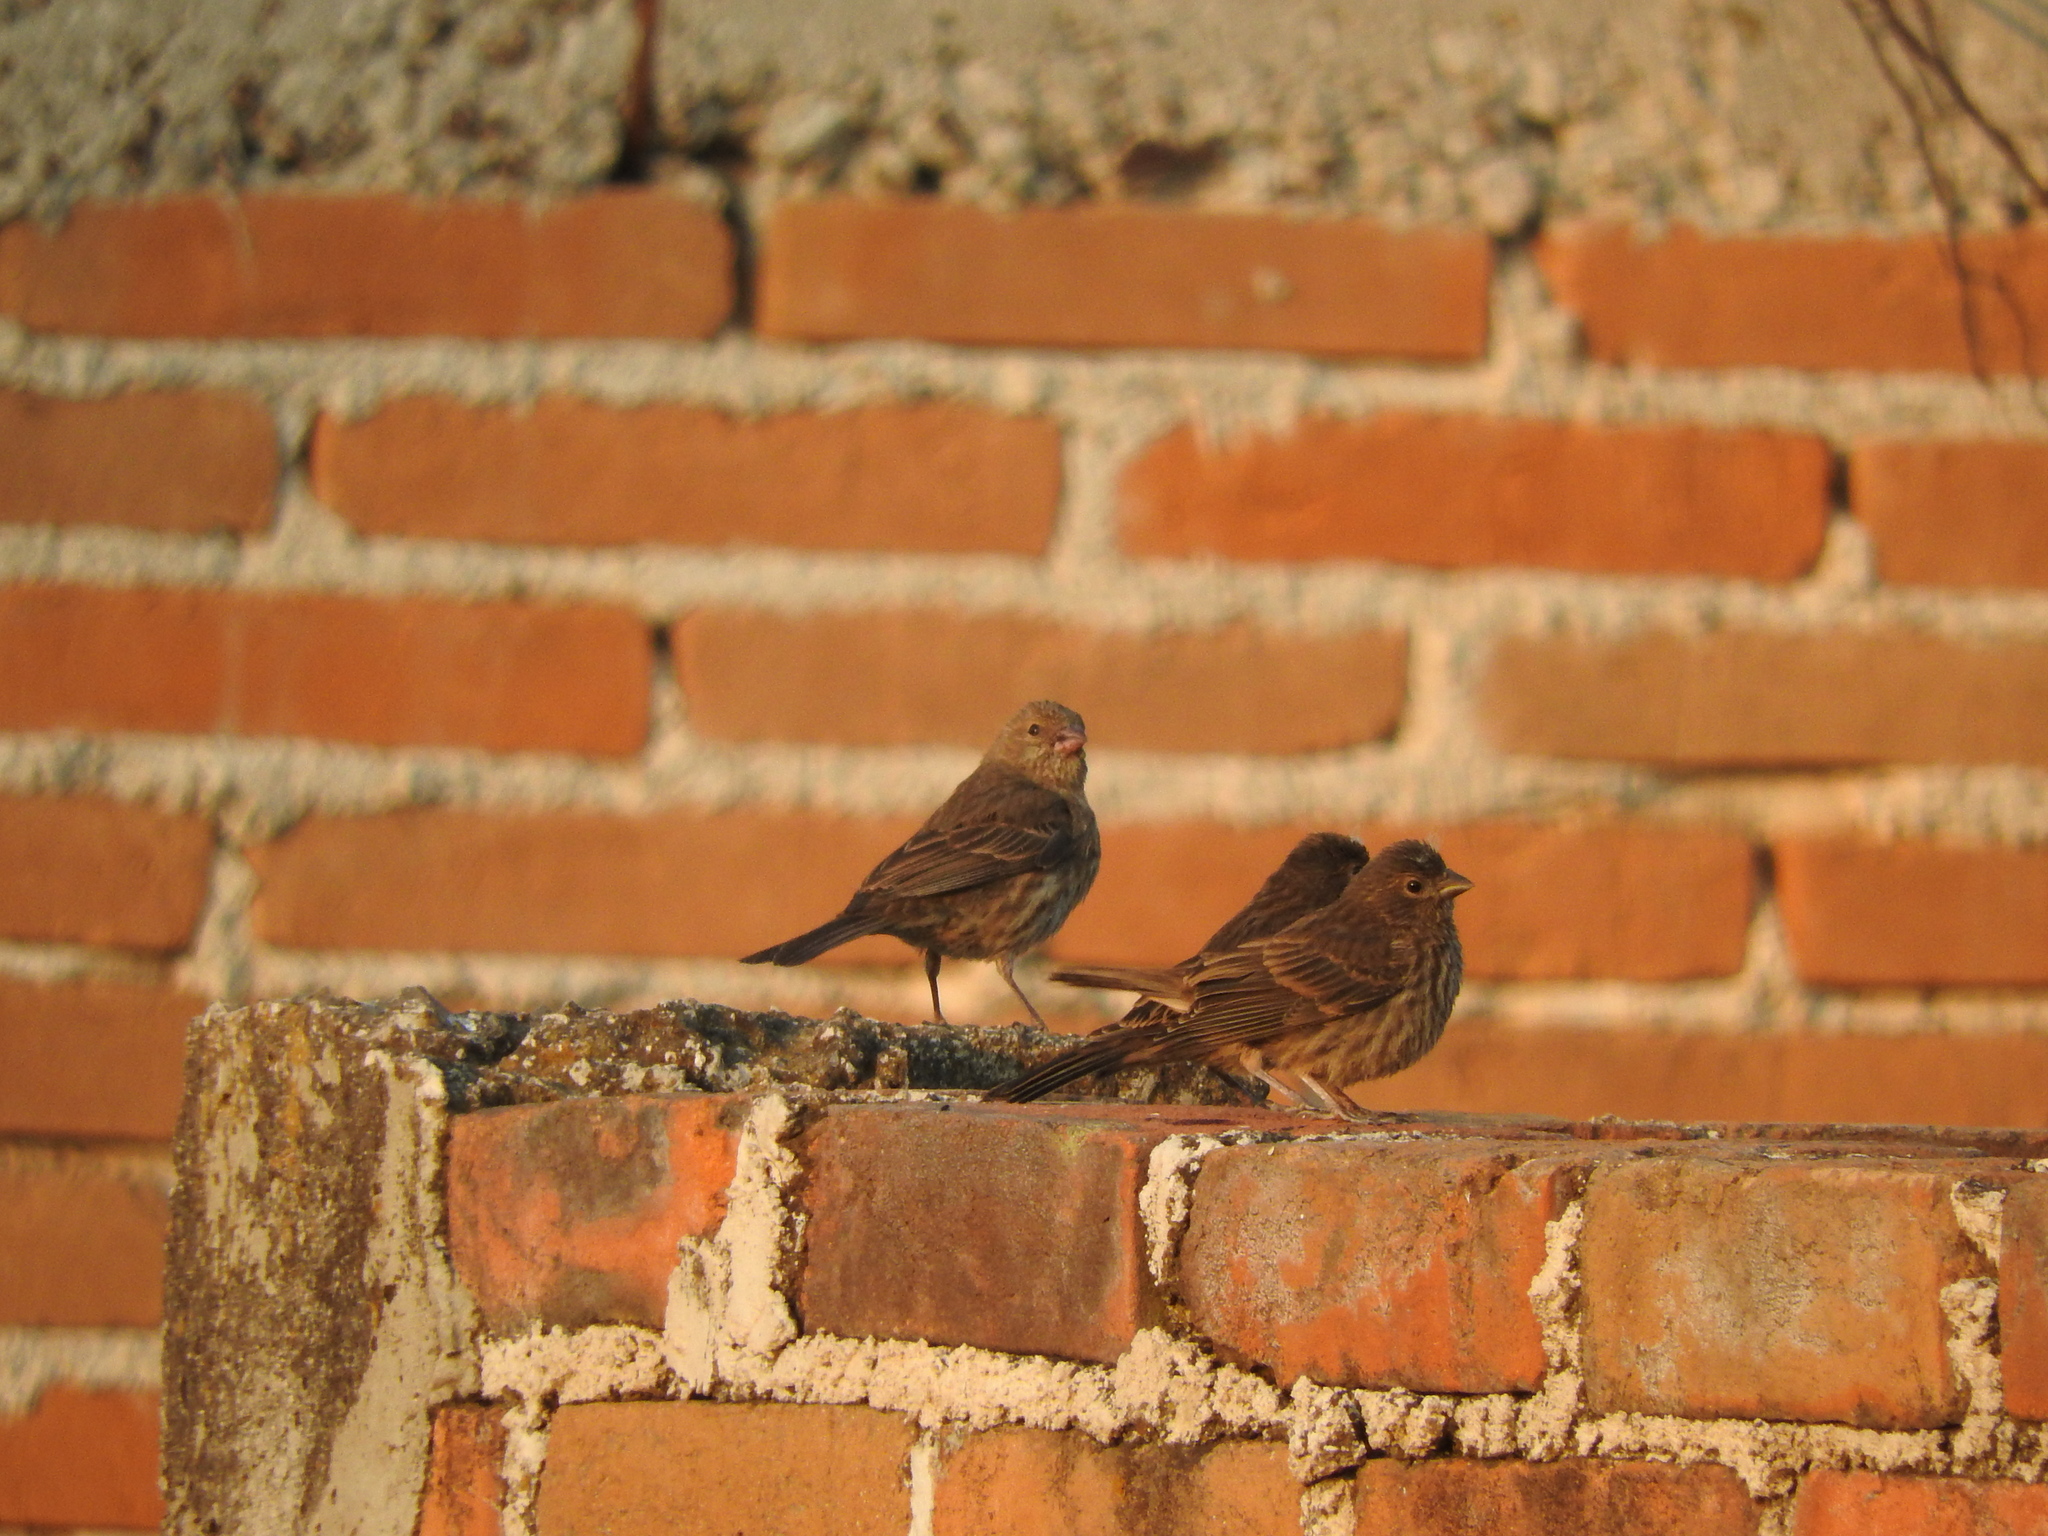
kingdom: Animalia
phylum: Chordata
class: Aves
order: Passeriformes
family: Fringillidae
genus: Haemorhous
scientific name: Haemorhous mexicanus
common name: House finch
